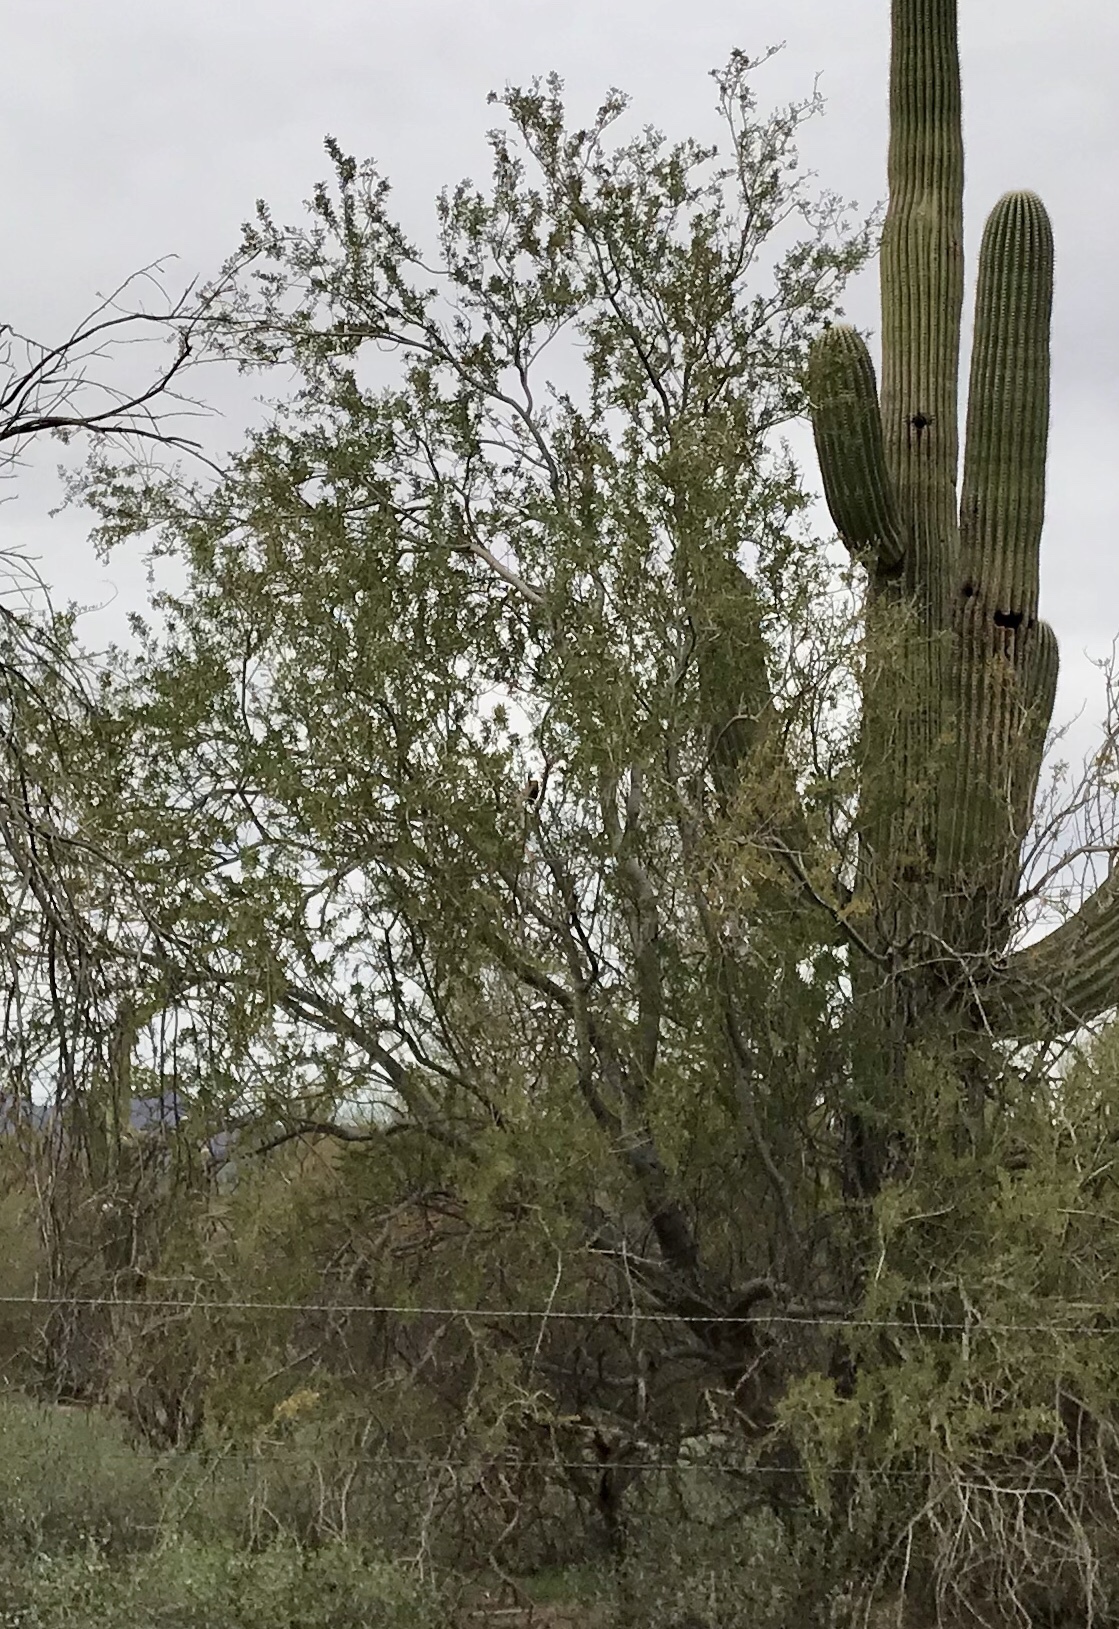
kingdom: Plantae
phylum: Tracheophyta
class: Magnoliopsida
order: Fabales
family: Fabaceae
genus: Olneya
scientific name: Olneya tesota
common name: Desert ironwood
